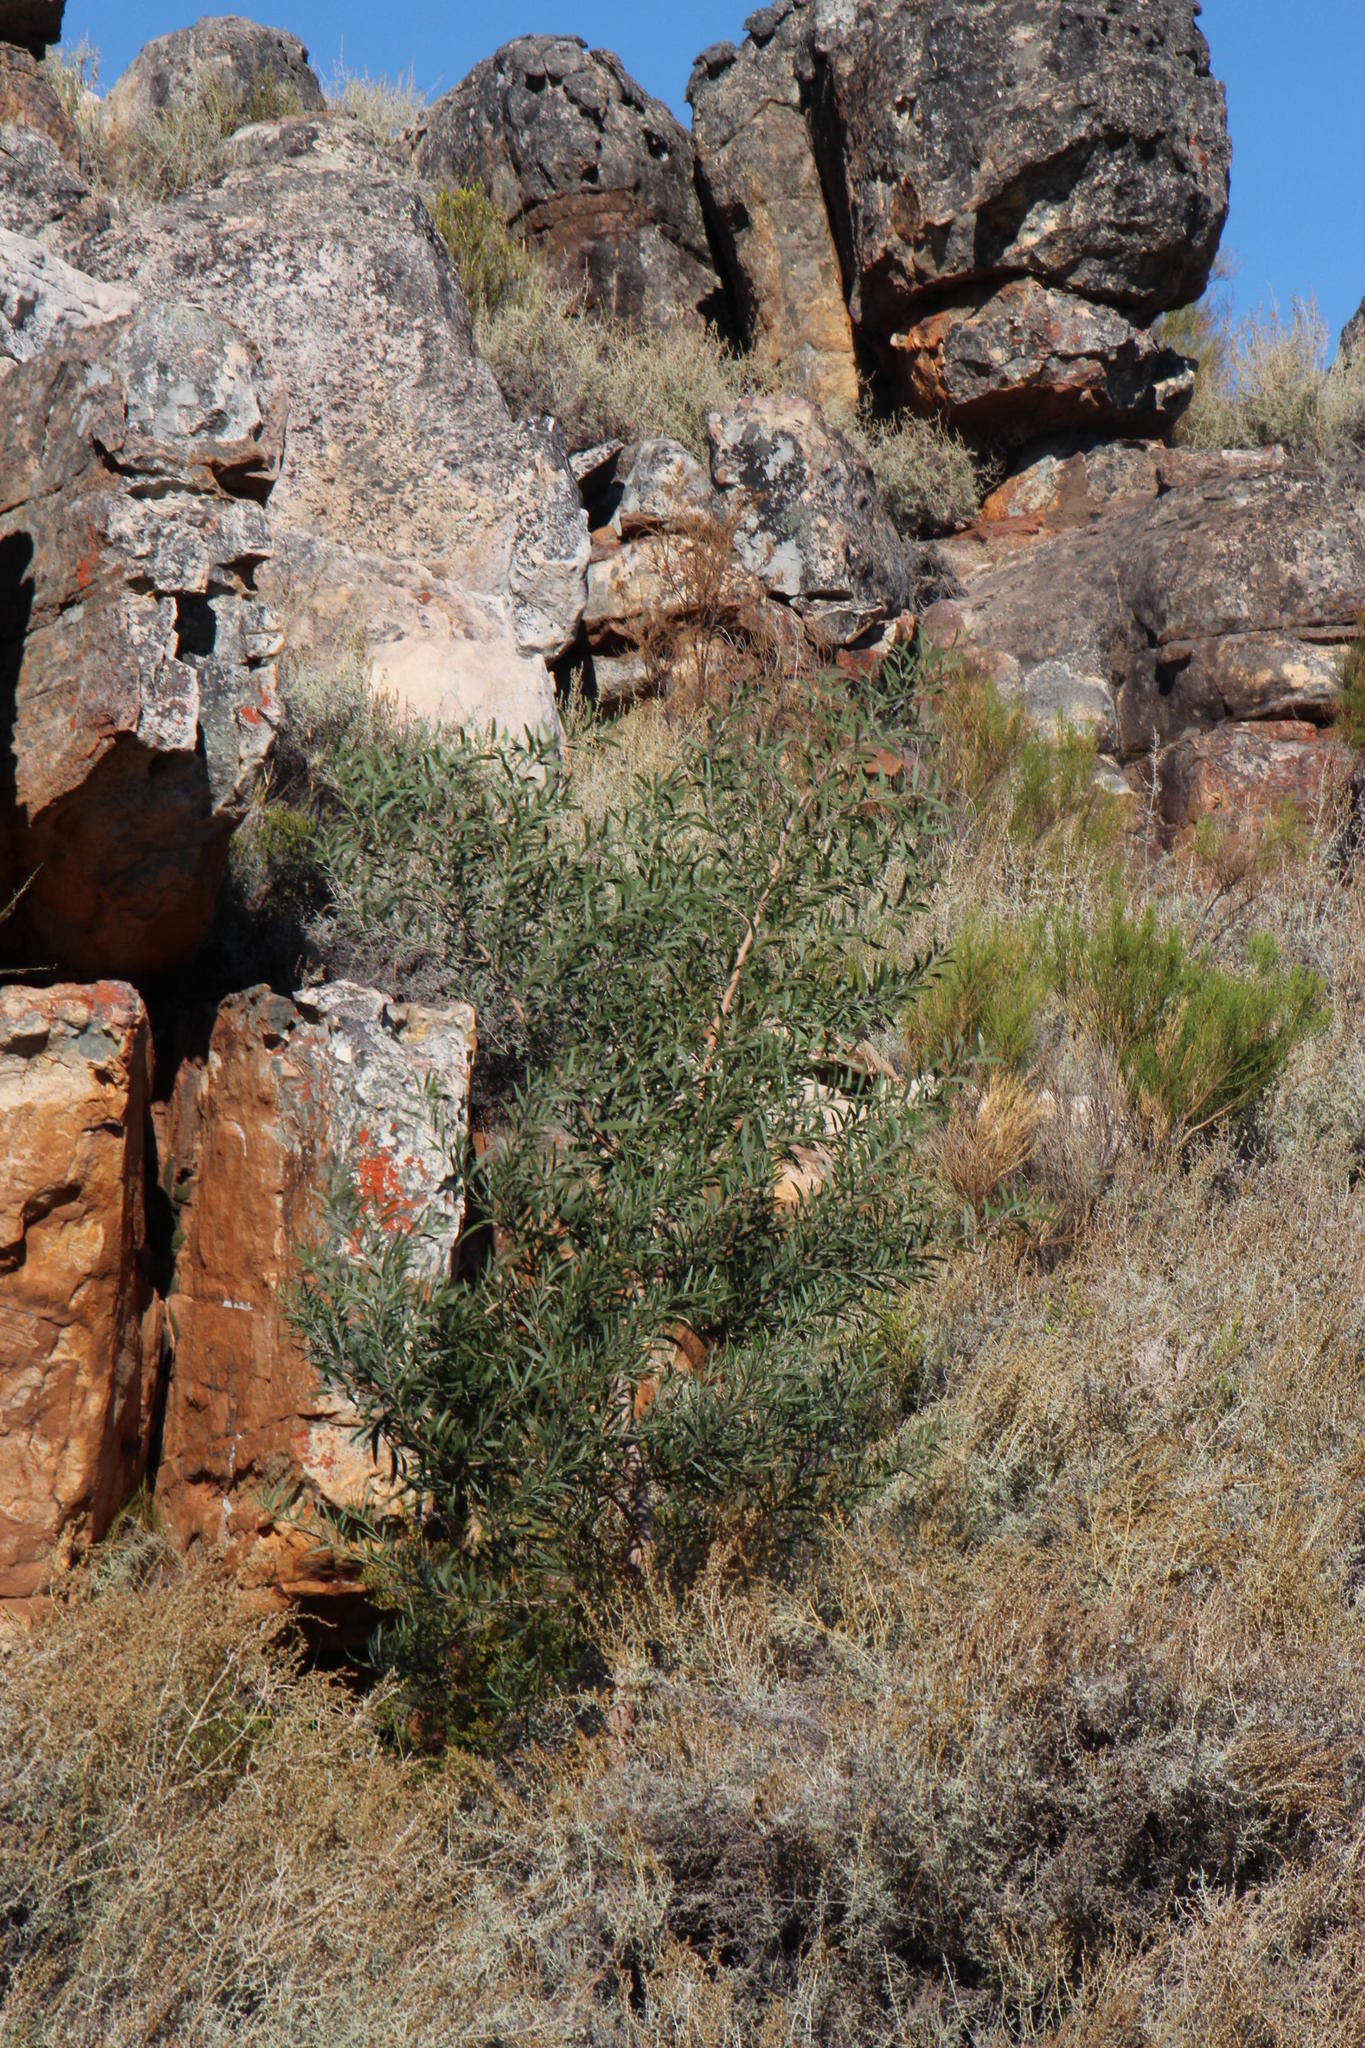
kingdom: Plantae
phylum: Tracheophyta
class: Magnoliopsida
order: Fabales
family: Fabaceae
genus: Acacia
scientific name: Acacia melanoxylon
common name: Blackwood
